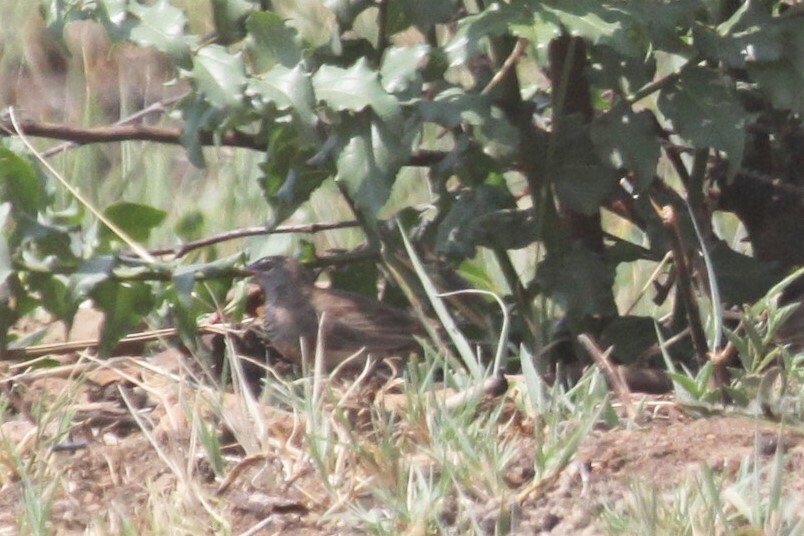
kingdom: Animalia
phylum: Chordata
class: Aves
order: Passeriformes
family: Estrildidae
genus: Ortygospiza
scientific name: Ortygospiza atricollis
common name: Quailfinch
